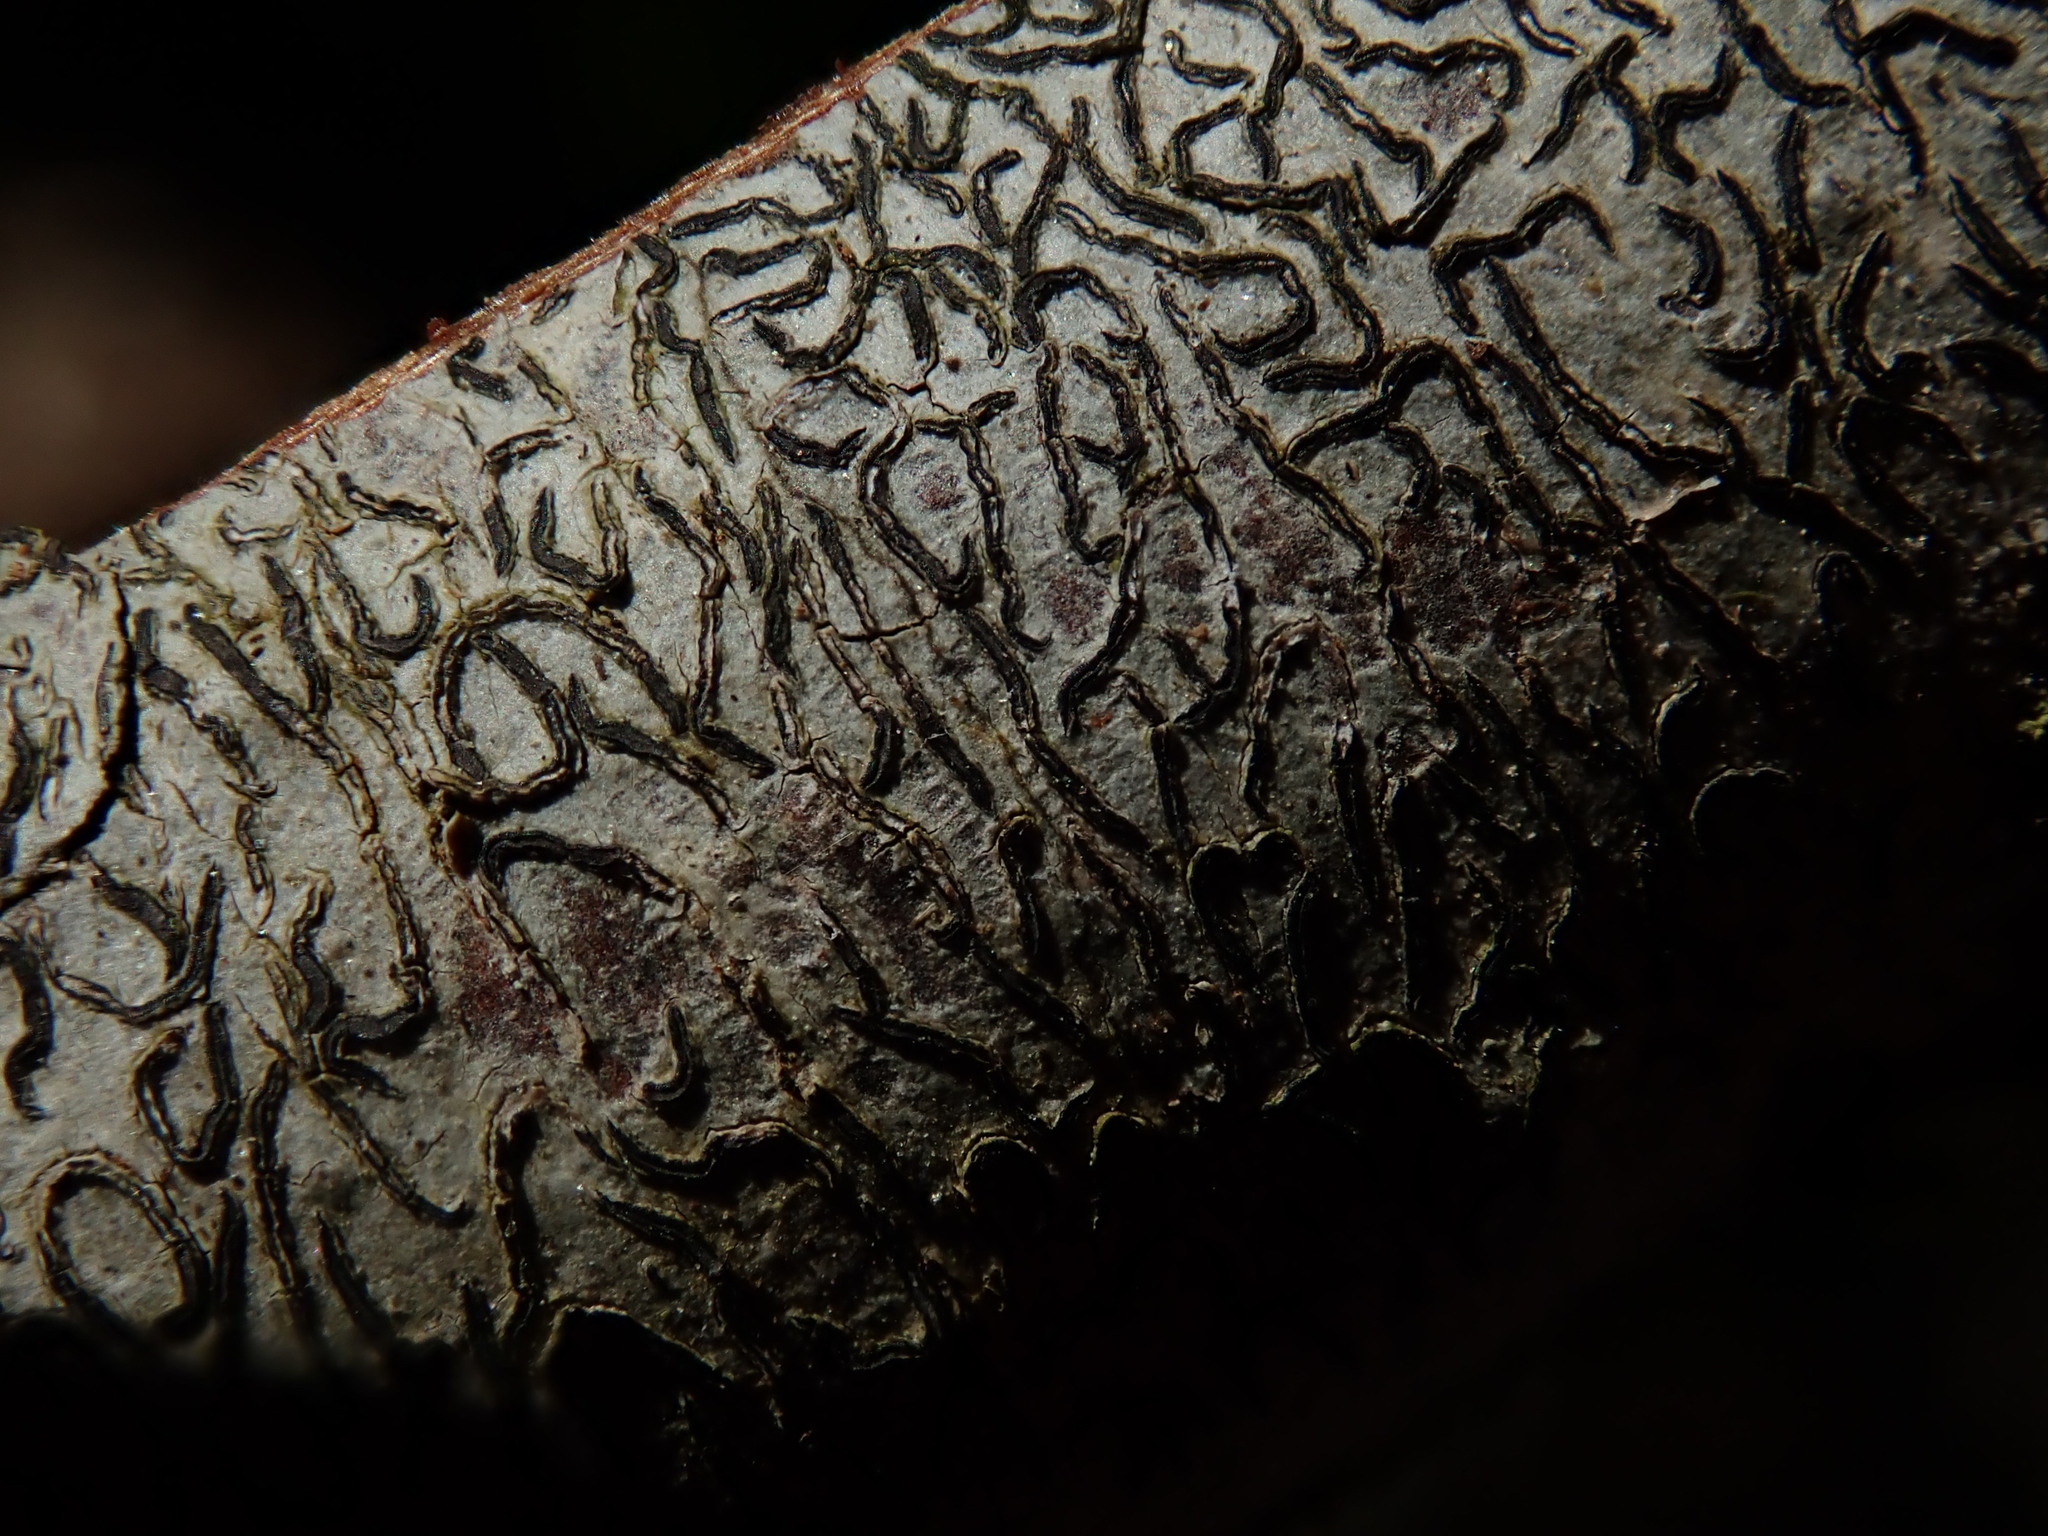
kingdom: Fungi
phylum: Ascomycota
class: Lecanoromycetes
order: Ostropales
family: Graphidaceae
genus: Graphis
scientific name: Graphis scripta
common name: Script lichen
